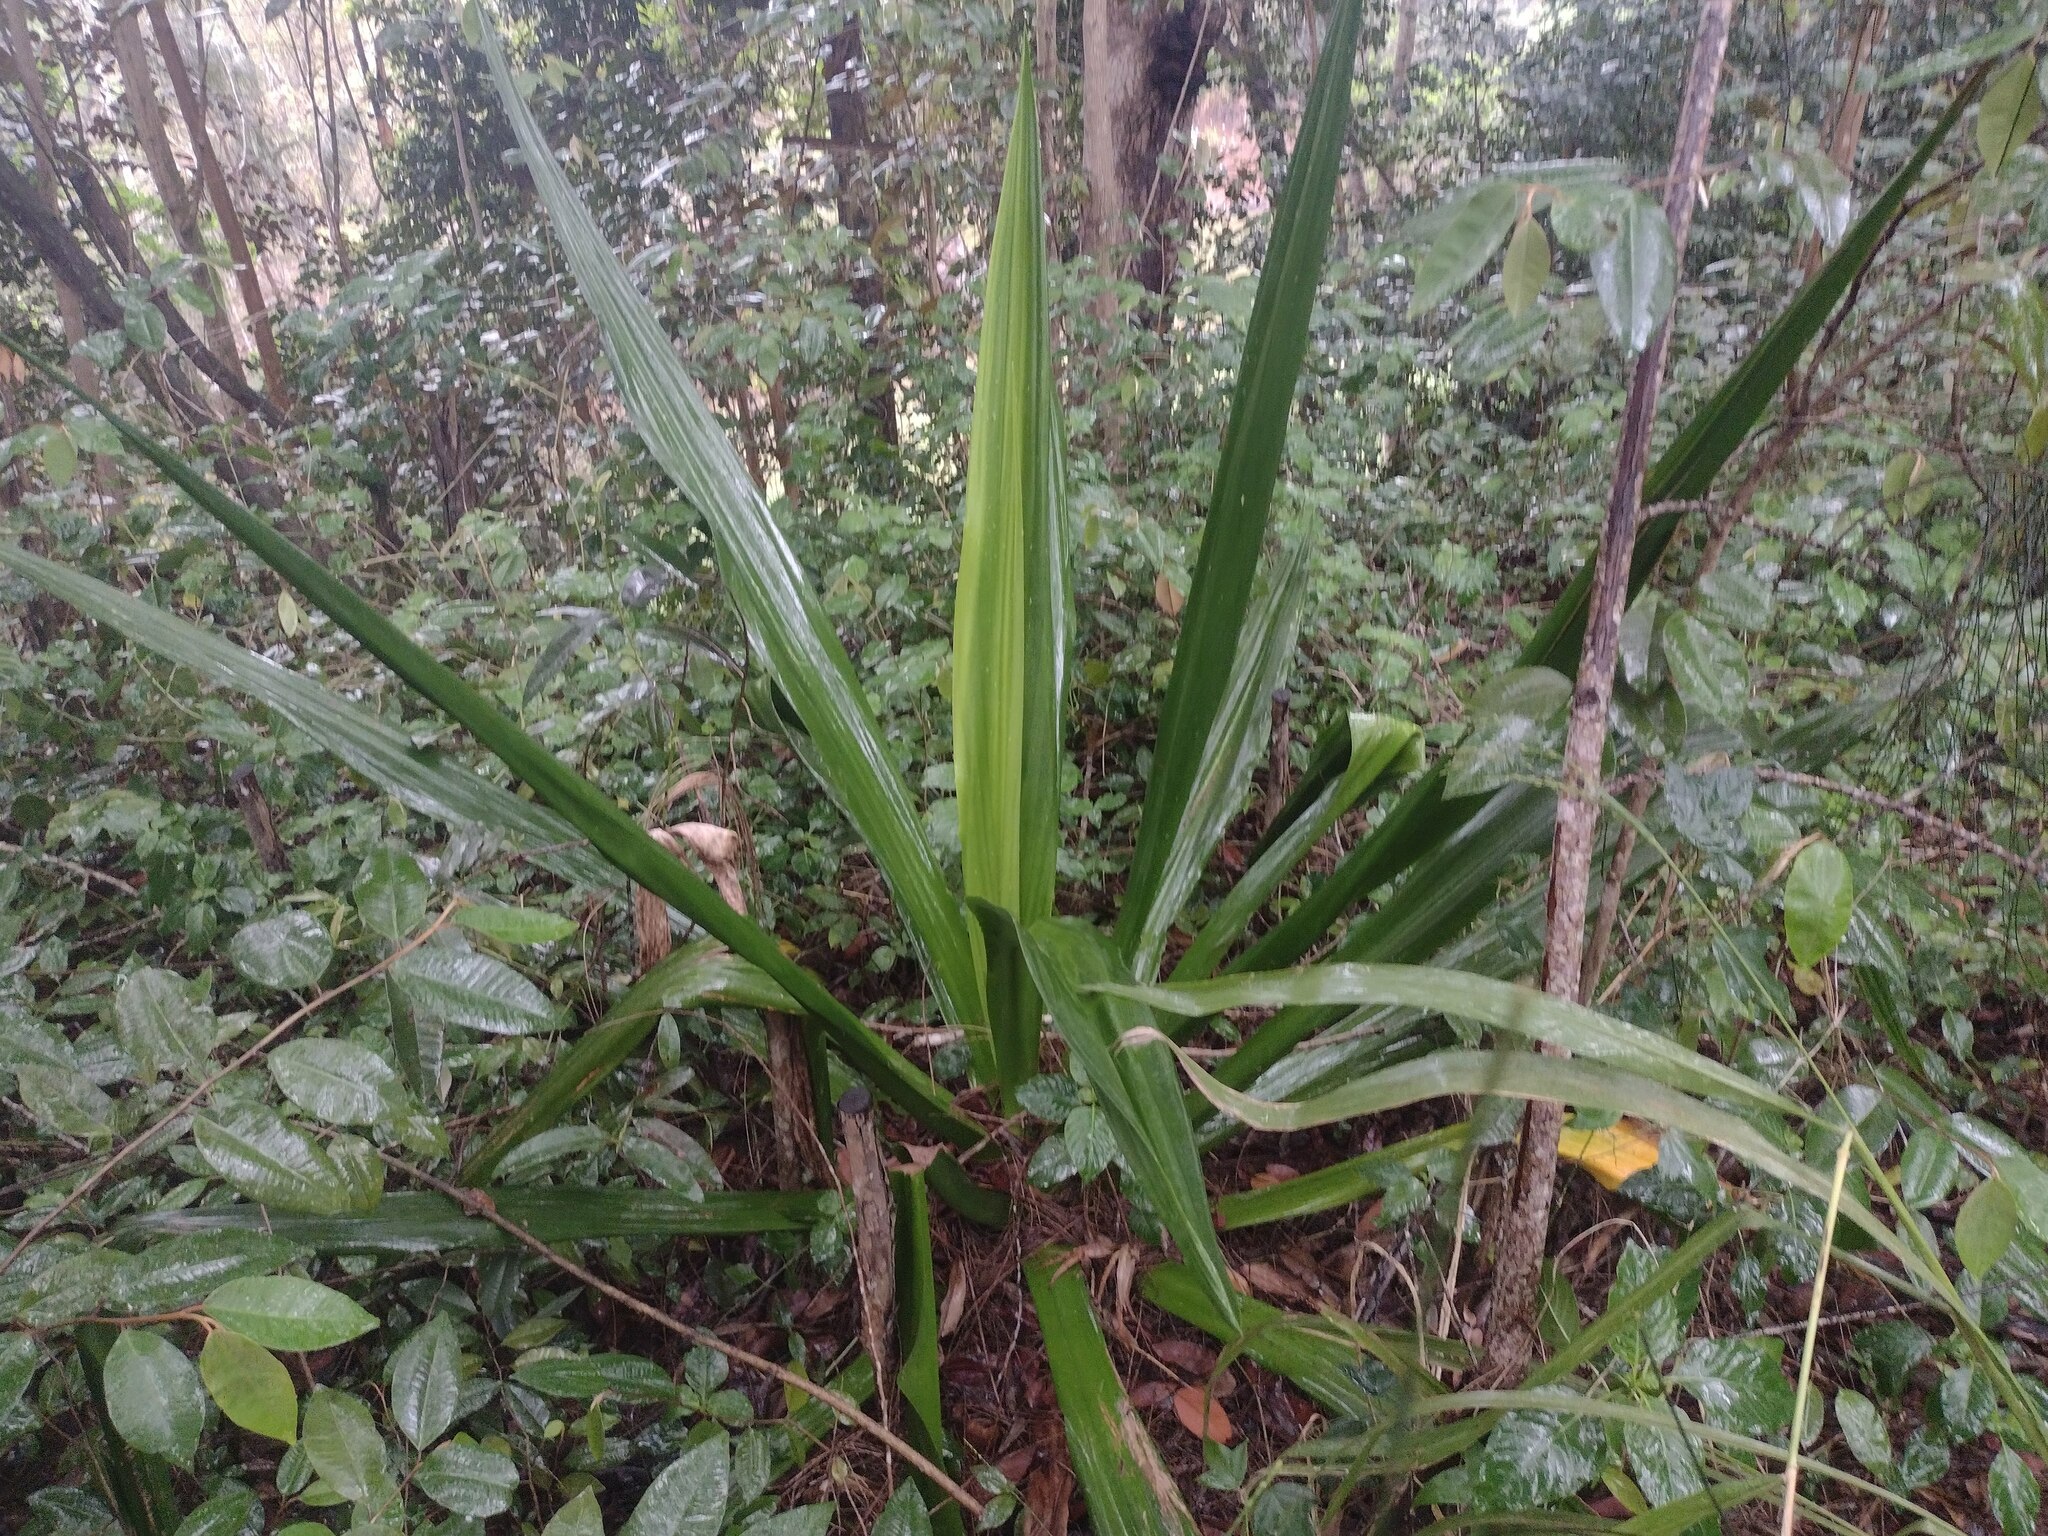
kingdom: Plantae
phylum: Tracheophyta
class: Liliopsida
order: Asparagales
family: Asparagaceae
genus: Furcraea
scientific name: Furcraea foetida
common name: Mauritius hemp
